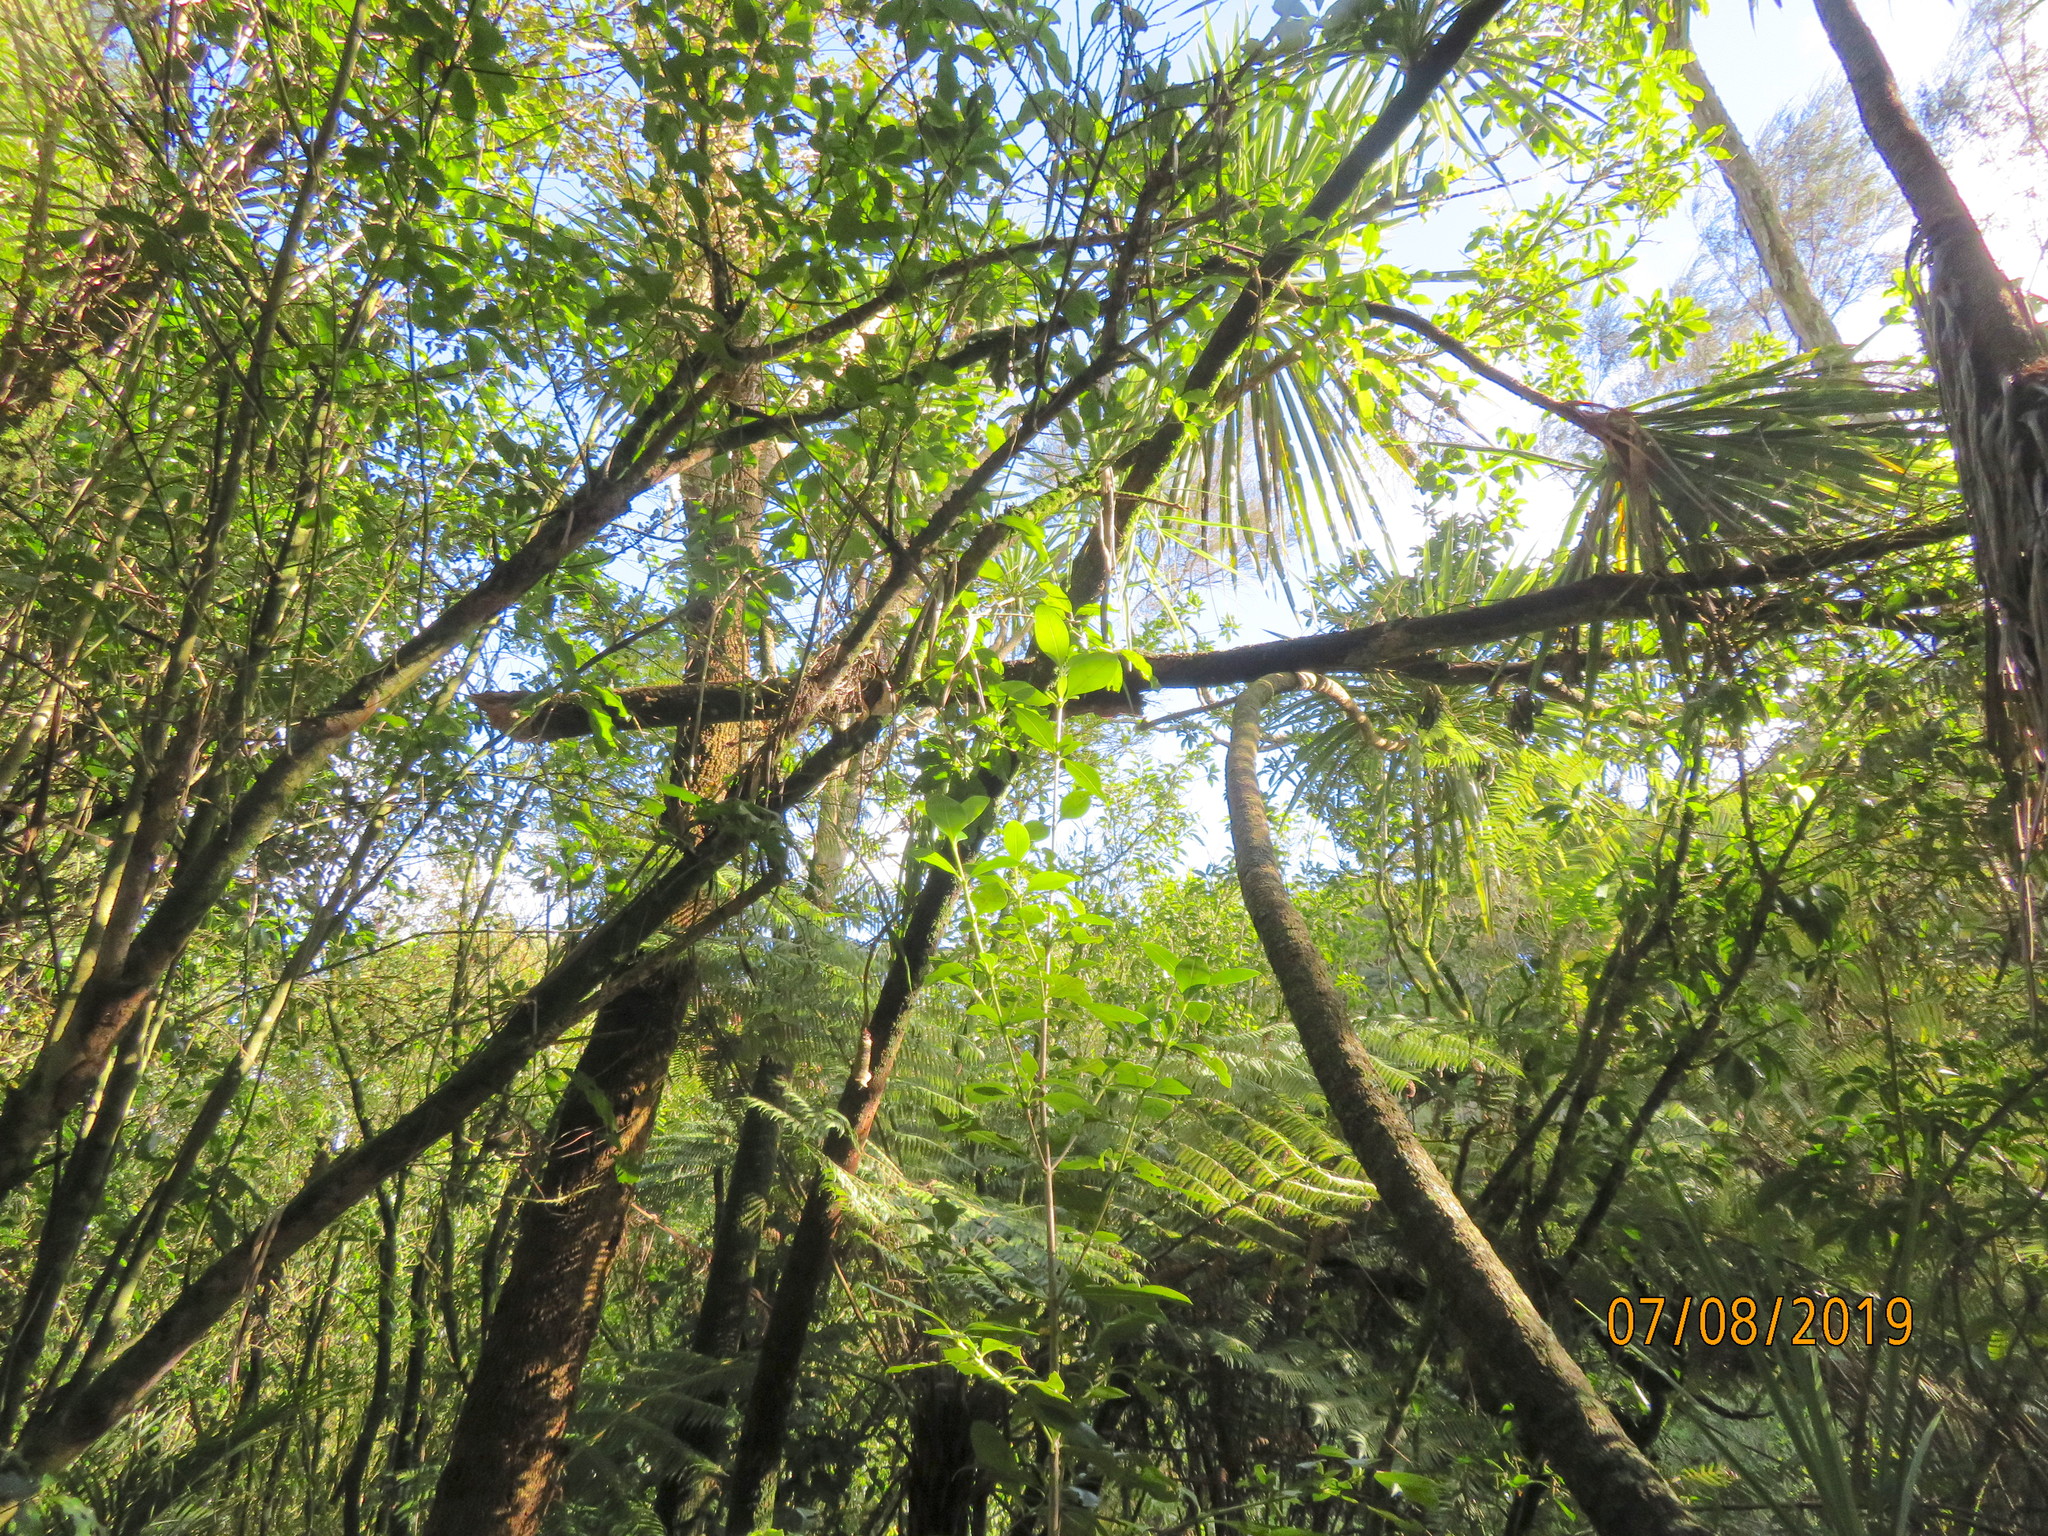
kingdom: Plantae
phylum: Tracheophyta
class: Liliopsida
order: Asparagales
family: Asparagaceae
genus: Cordyline
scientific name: Cordyline australis
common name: Cabbage-palm
